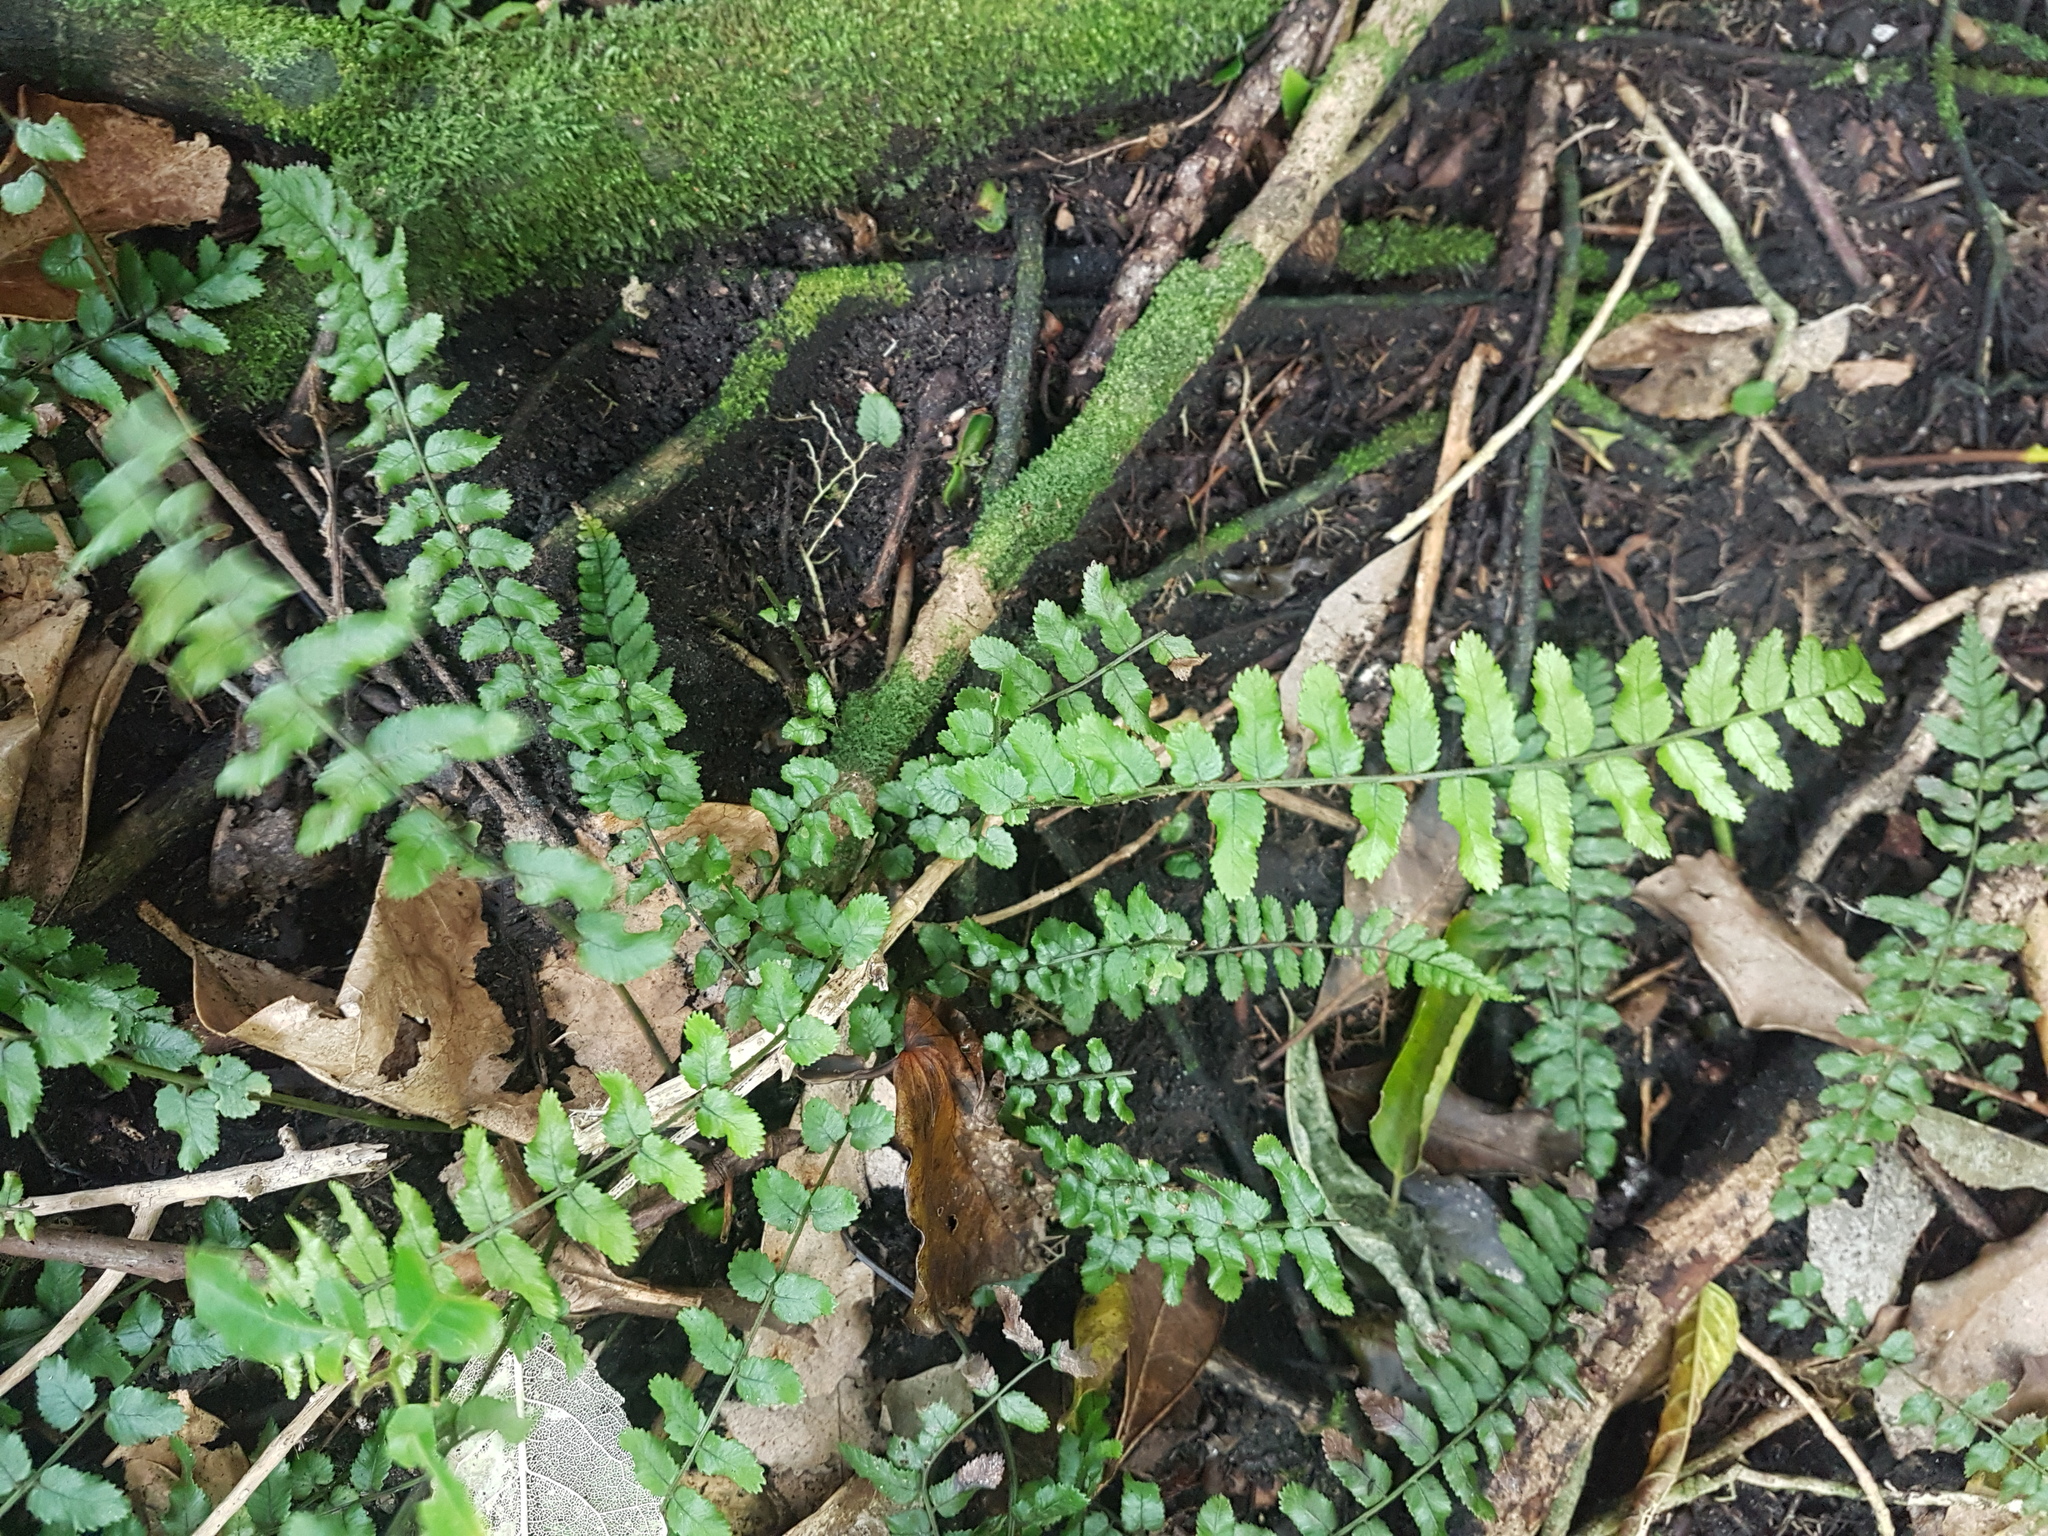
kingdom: Plantae
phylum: Tracheophyta
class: Polypodiopsida
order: Polypodiales
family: Blechnaceae
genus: Icarus
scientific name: Icarus filiformis
